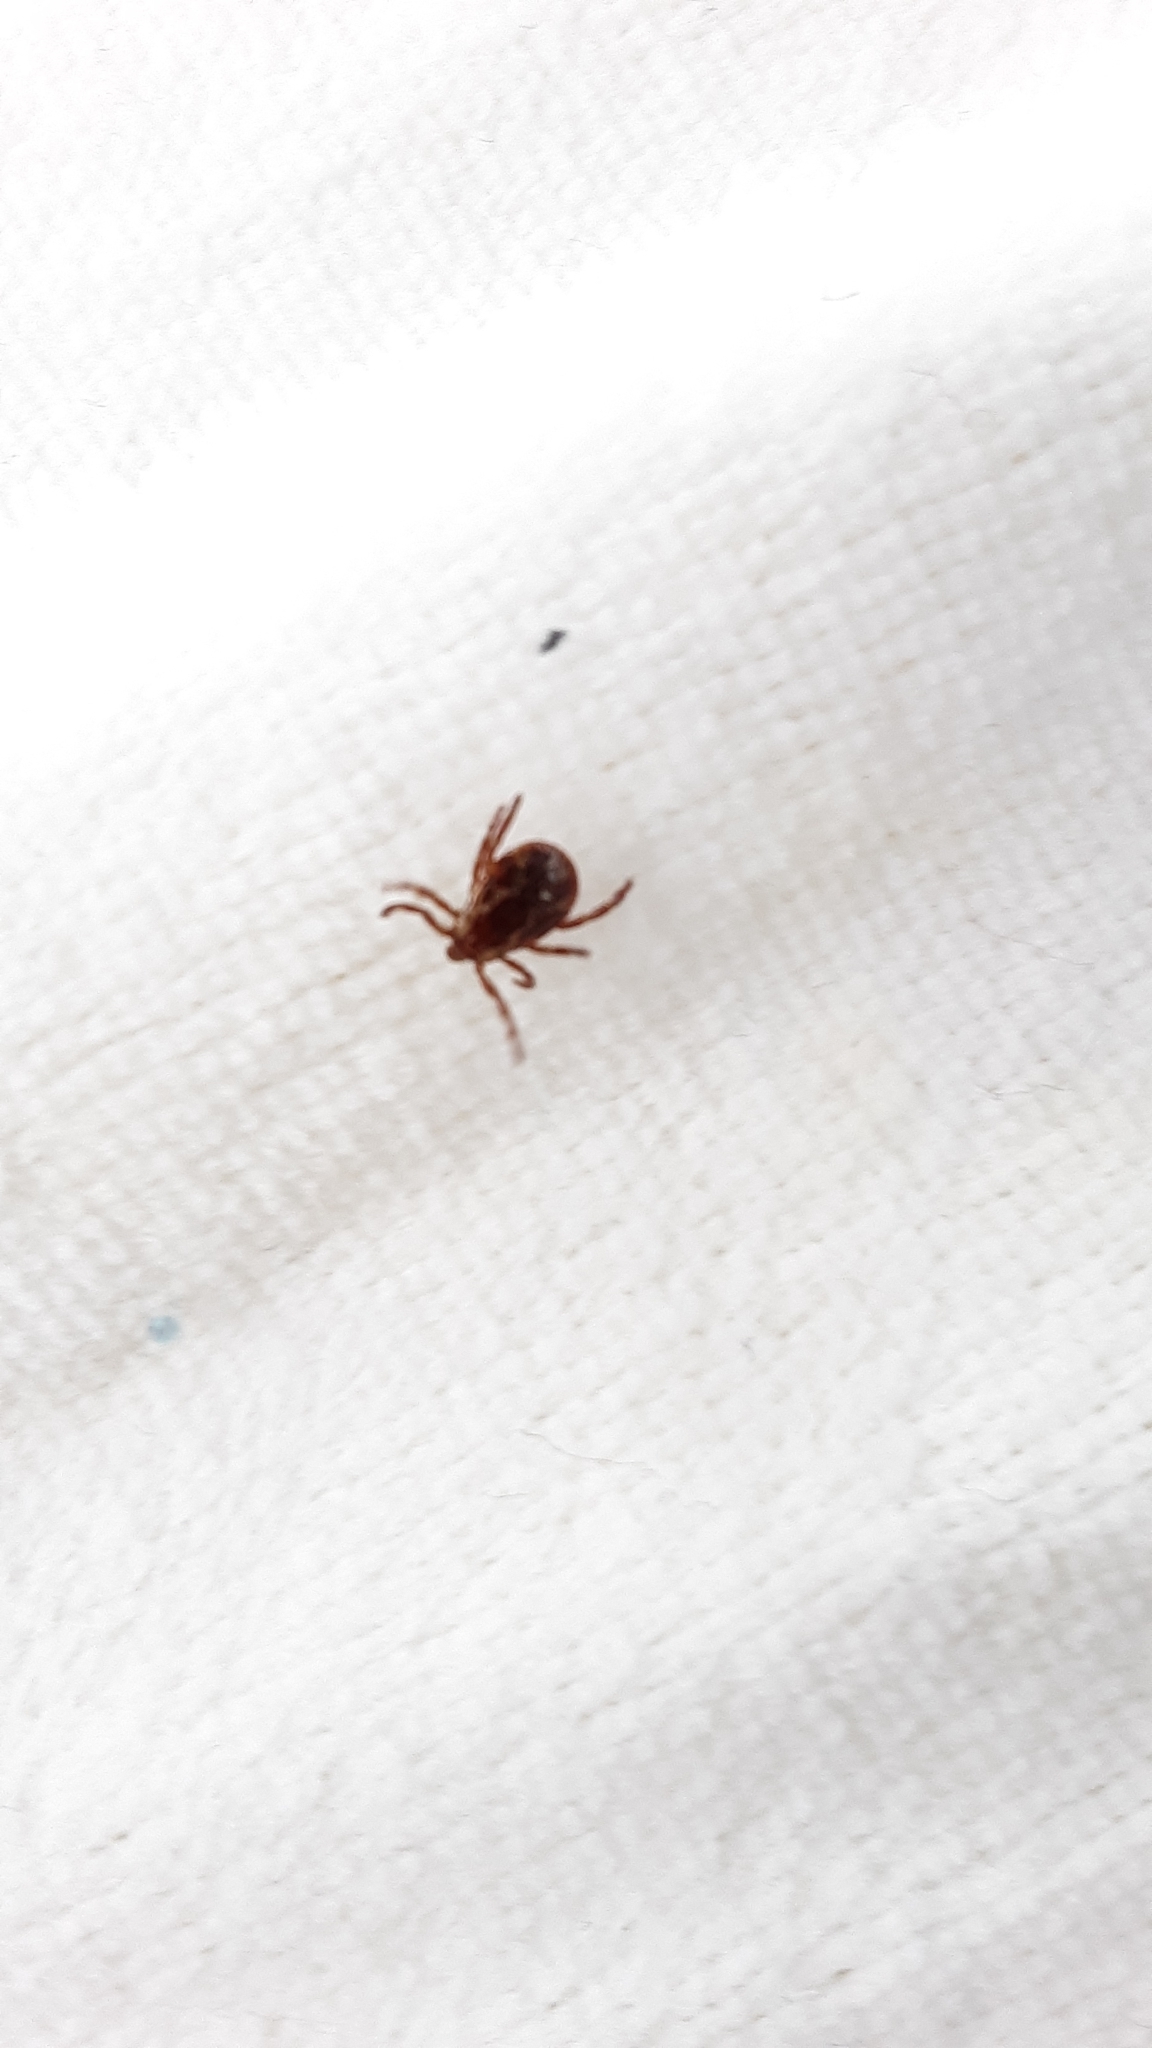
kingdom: Animalia
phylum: Arthropoda
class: Arachnida
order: Ixodida
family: Ixodidae
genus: Dermacentor
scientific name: Dermacentor variabilis
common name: American dog tick
